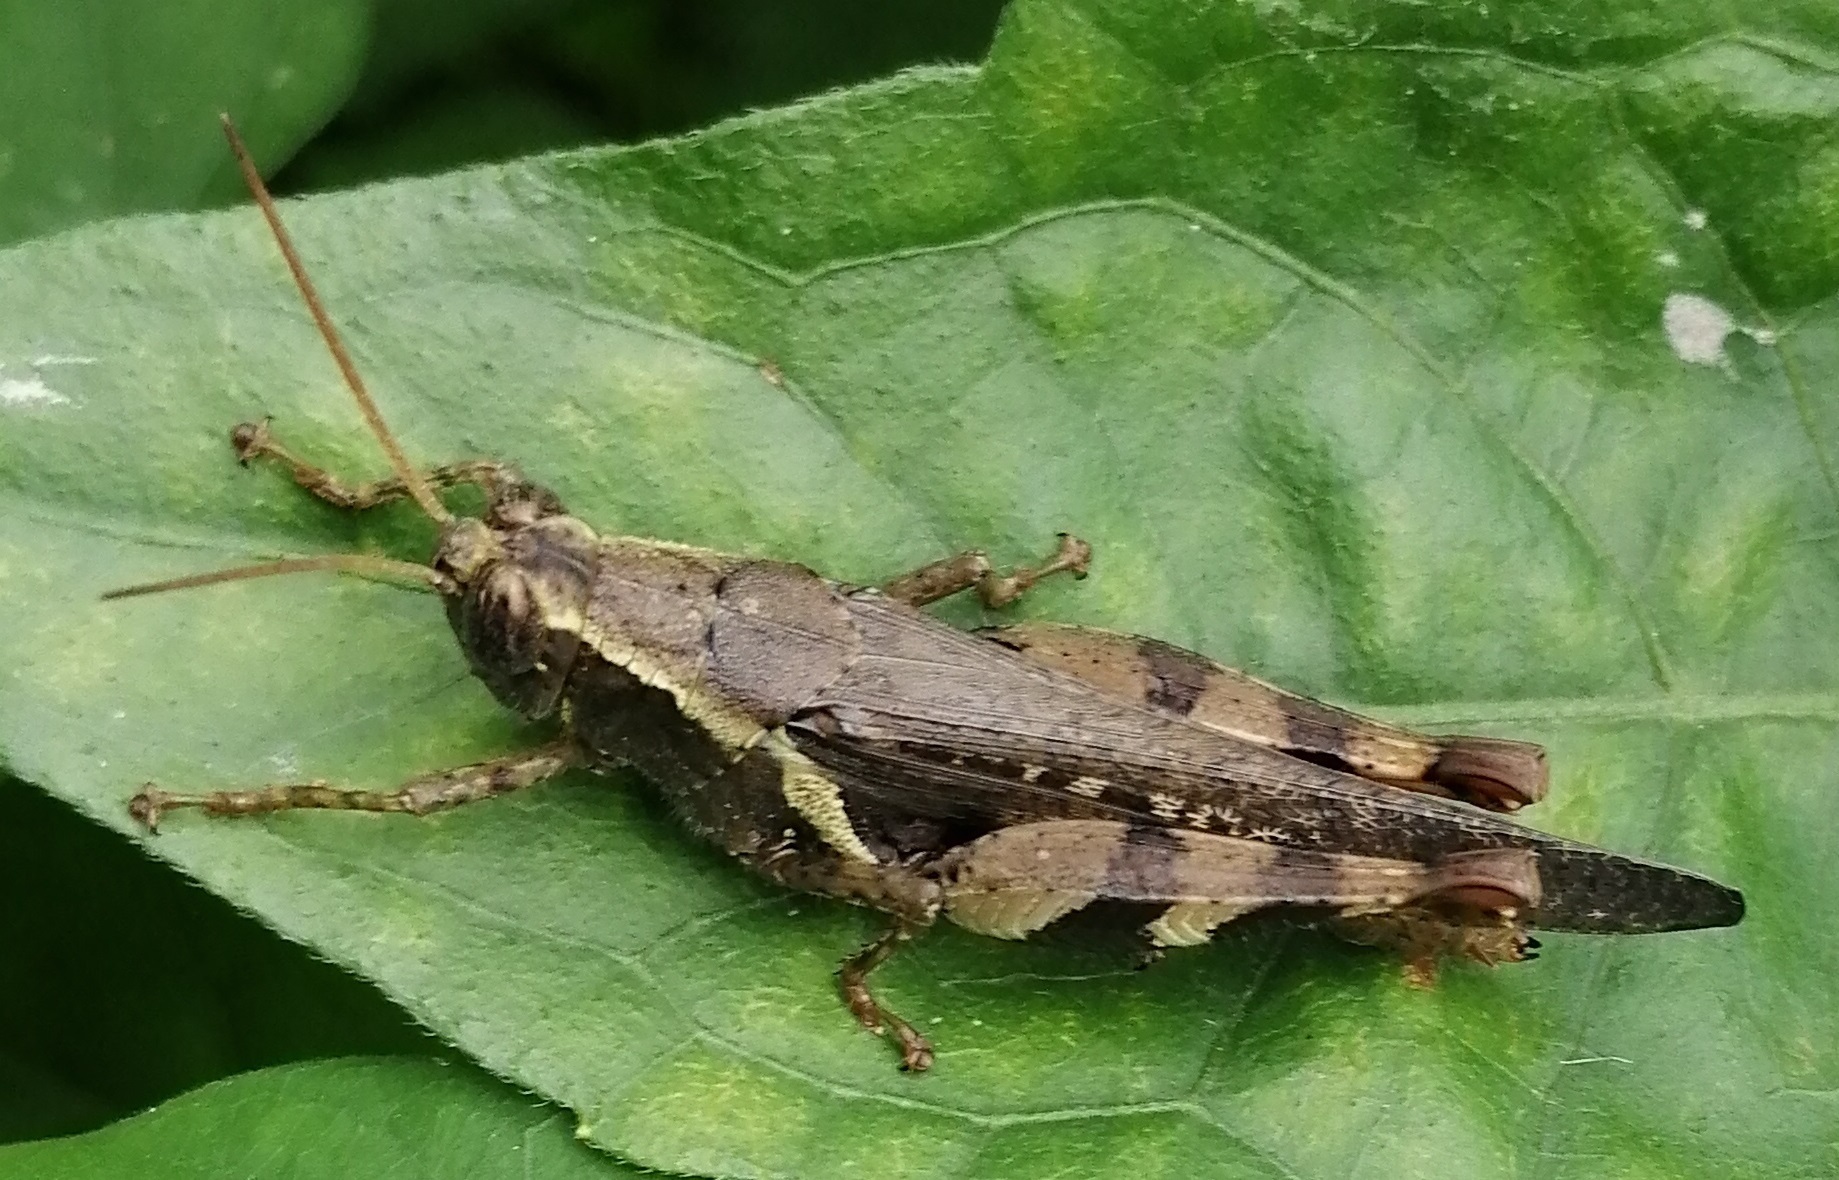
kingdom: Animalia
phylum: Arthropoda
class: Insecta
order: Orthoptera
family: Acrididae
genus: Xenocatantops
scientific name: Xenocatantops humile
